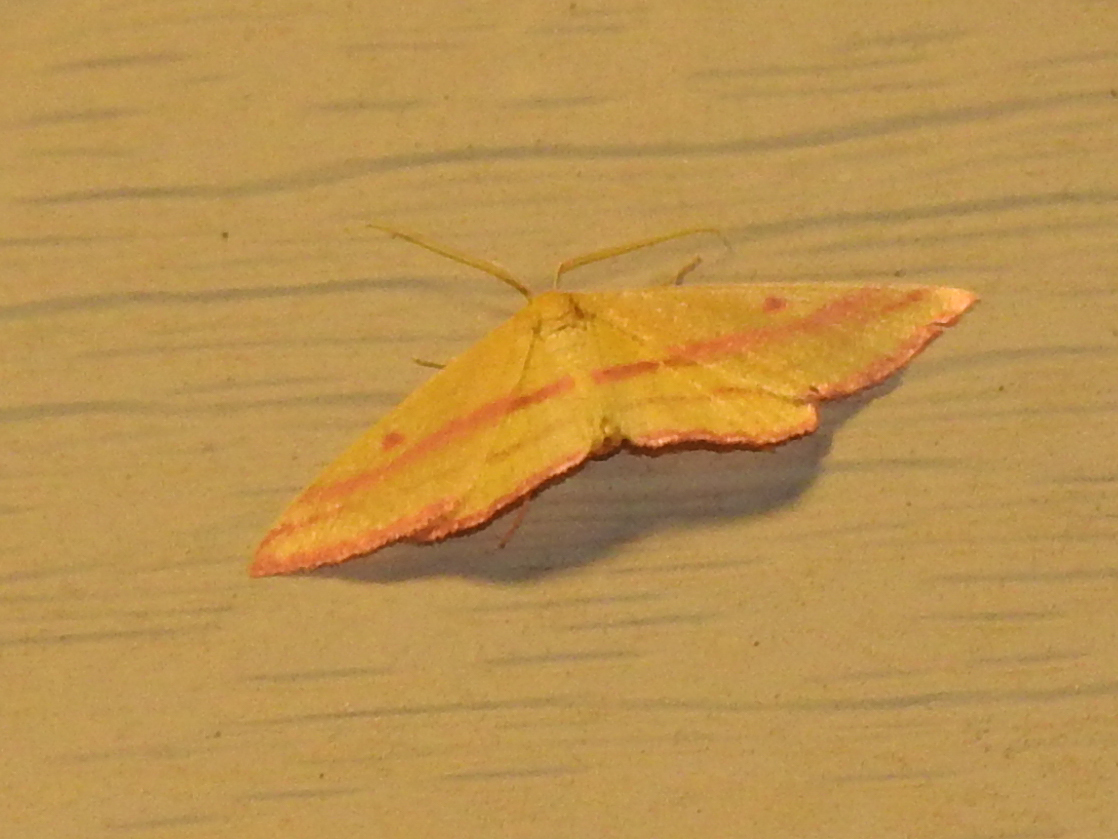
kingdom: Animalia
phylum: Arthropoda
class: Insecta
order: Lepidoptera
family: Geometridae
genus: Haematopis
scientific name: Haematopis grataria
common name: Chickweed geometer
